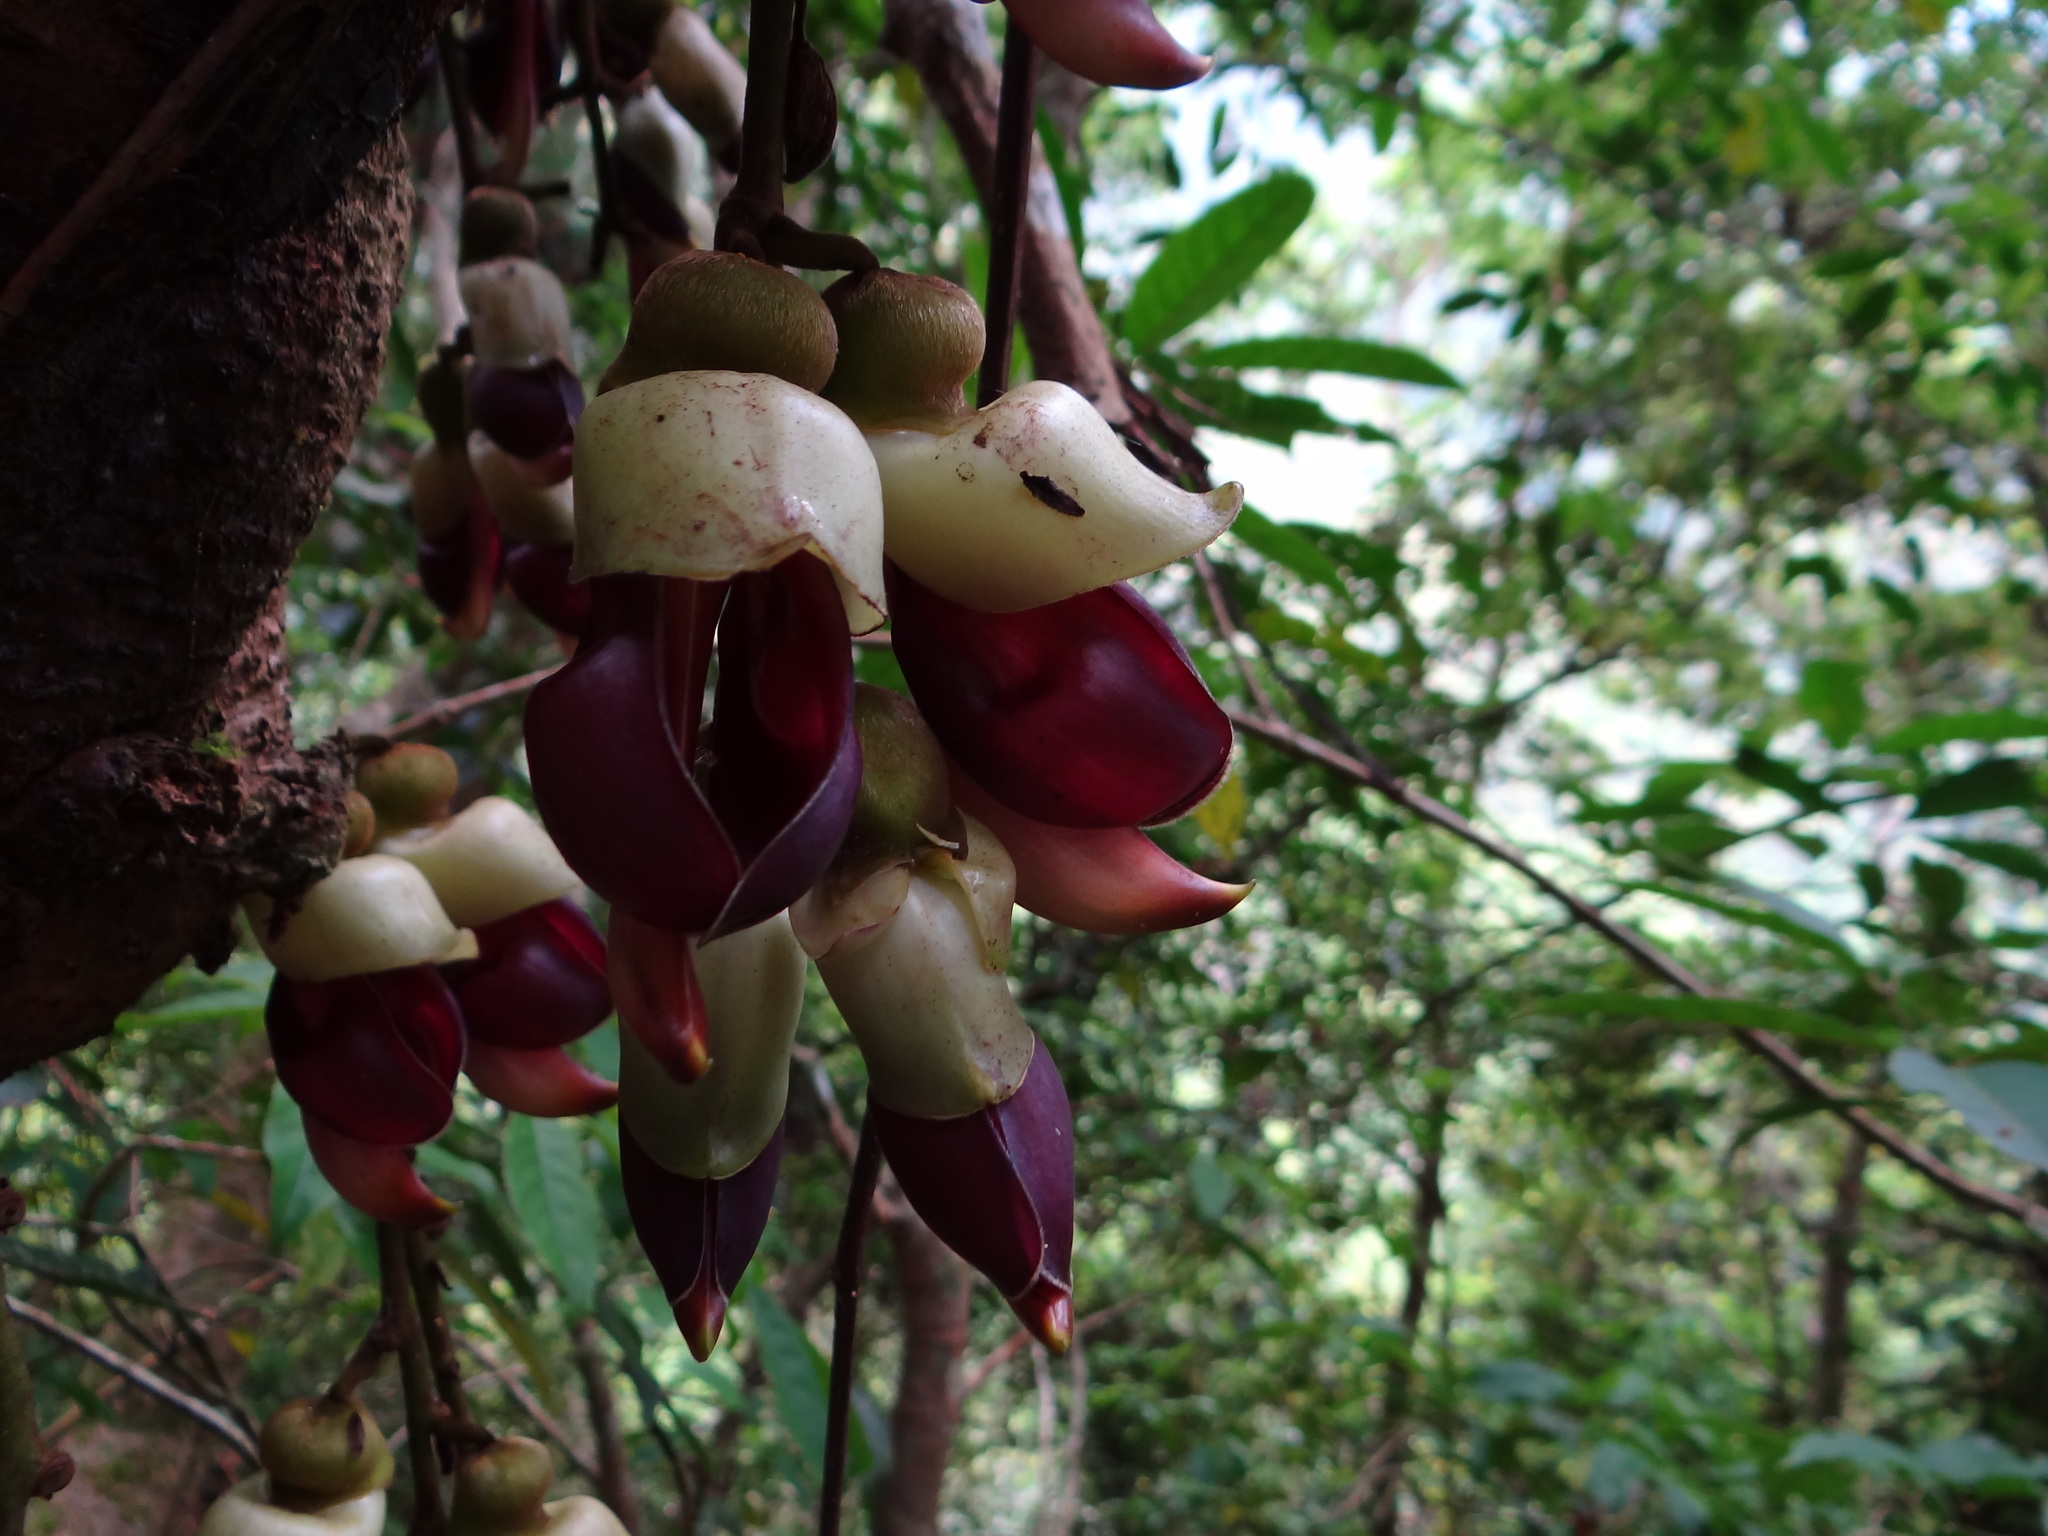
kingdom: Plantae
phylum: Tracheophyta
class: Magnoliopsida
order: Fabales
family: Fabaceae
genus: Mucuna
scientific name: Mucuna macrocarpa
